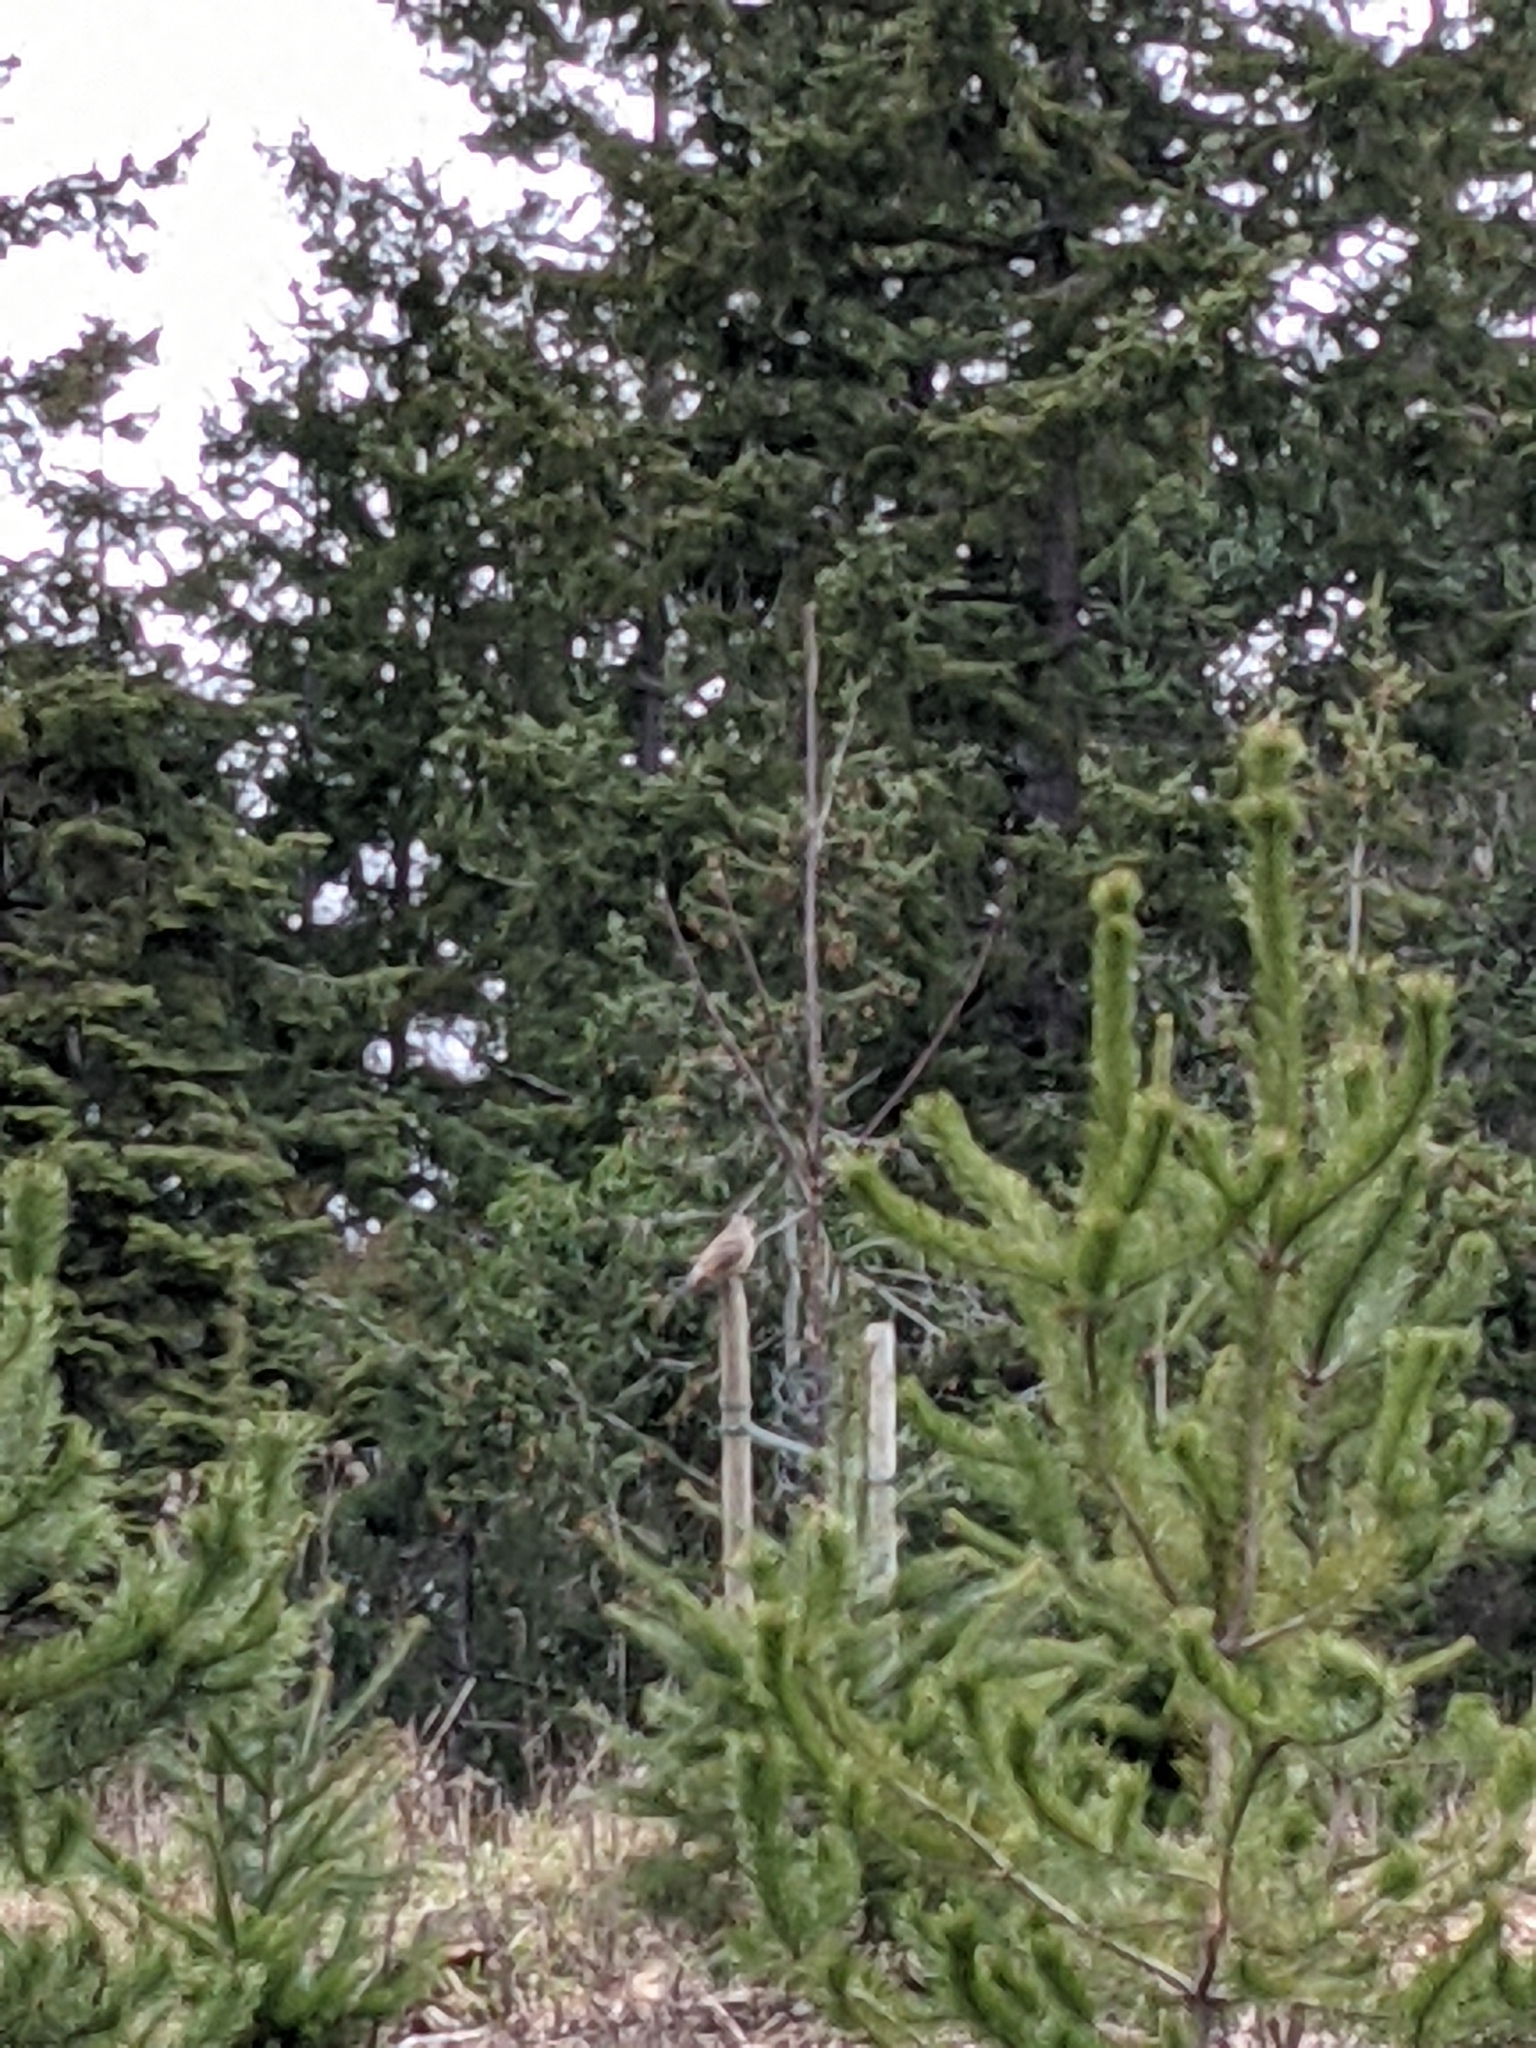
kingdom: Animalia
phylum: Chordata
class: Aves
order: Piciformes
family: Picidae
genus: Colaptes
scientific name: Colaptes auratus
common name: Northern flicker
